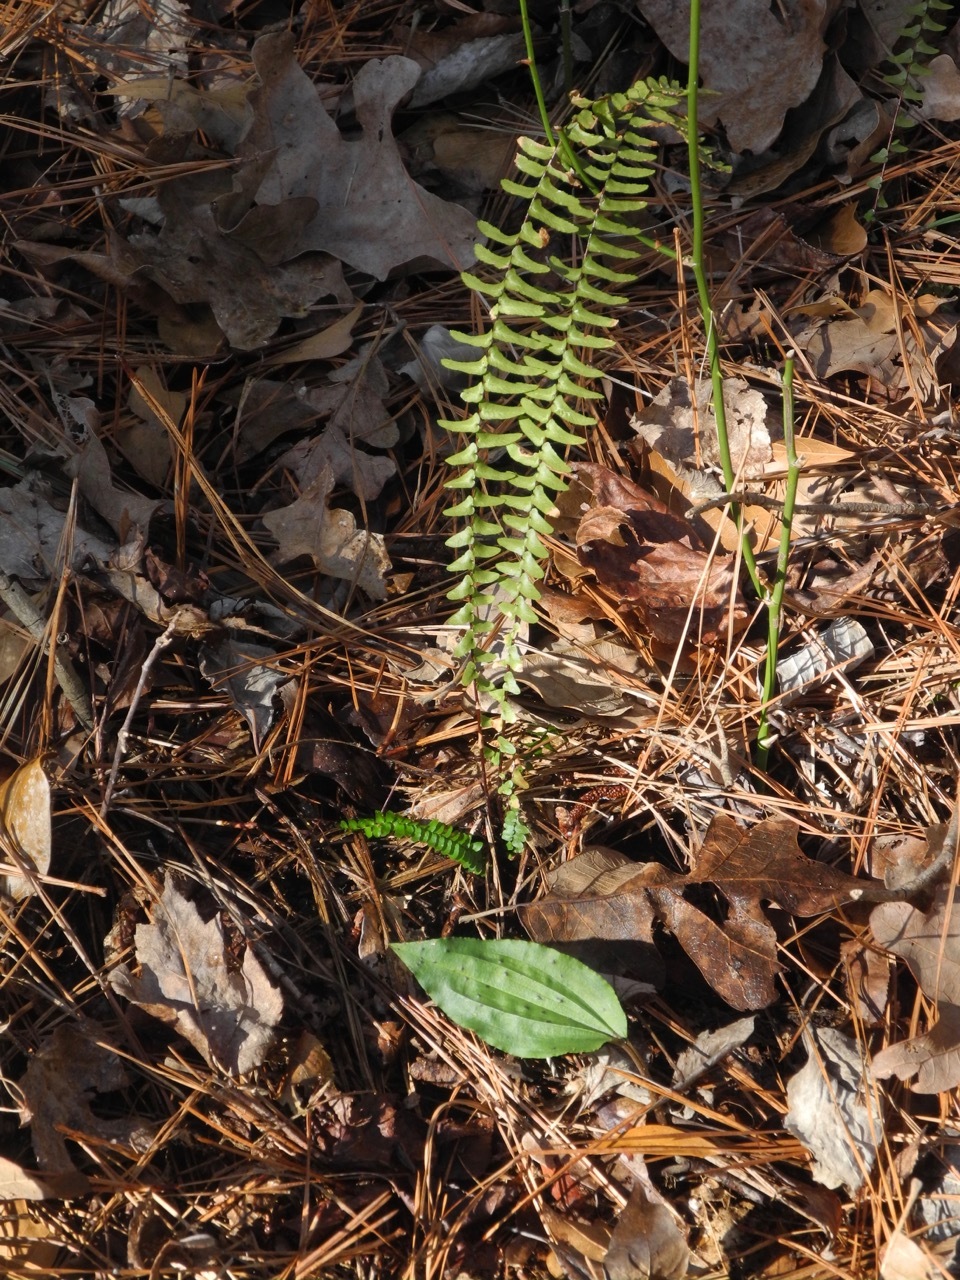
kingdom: Plantae
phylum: Tracheophyta
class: Polypodiopsida
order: Polypodiales
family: Aspleniaceae
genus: Asplenium
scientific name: Asplenium platyneuron
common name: Ebony spleenwort
